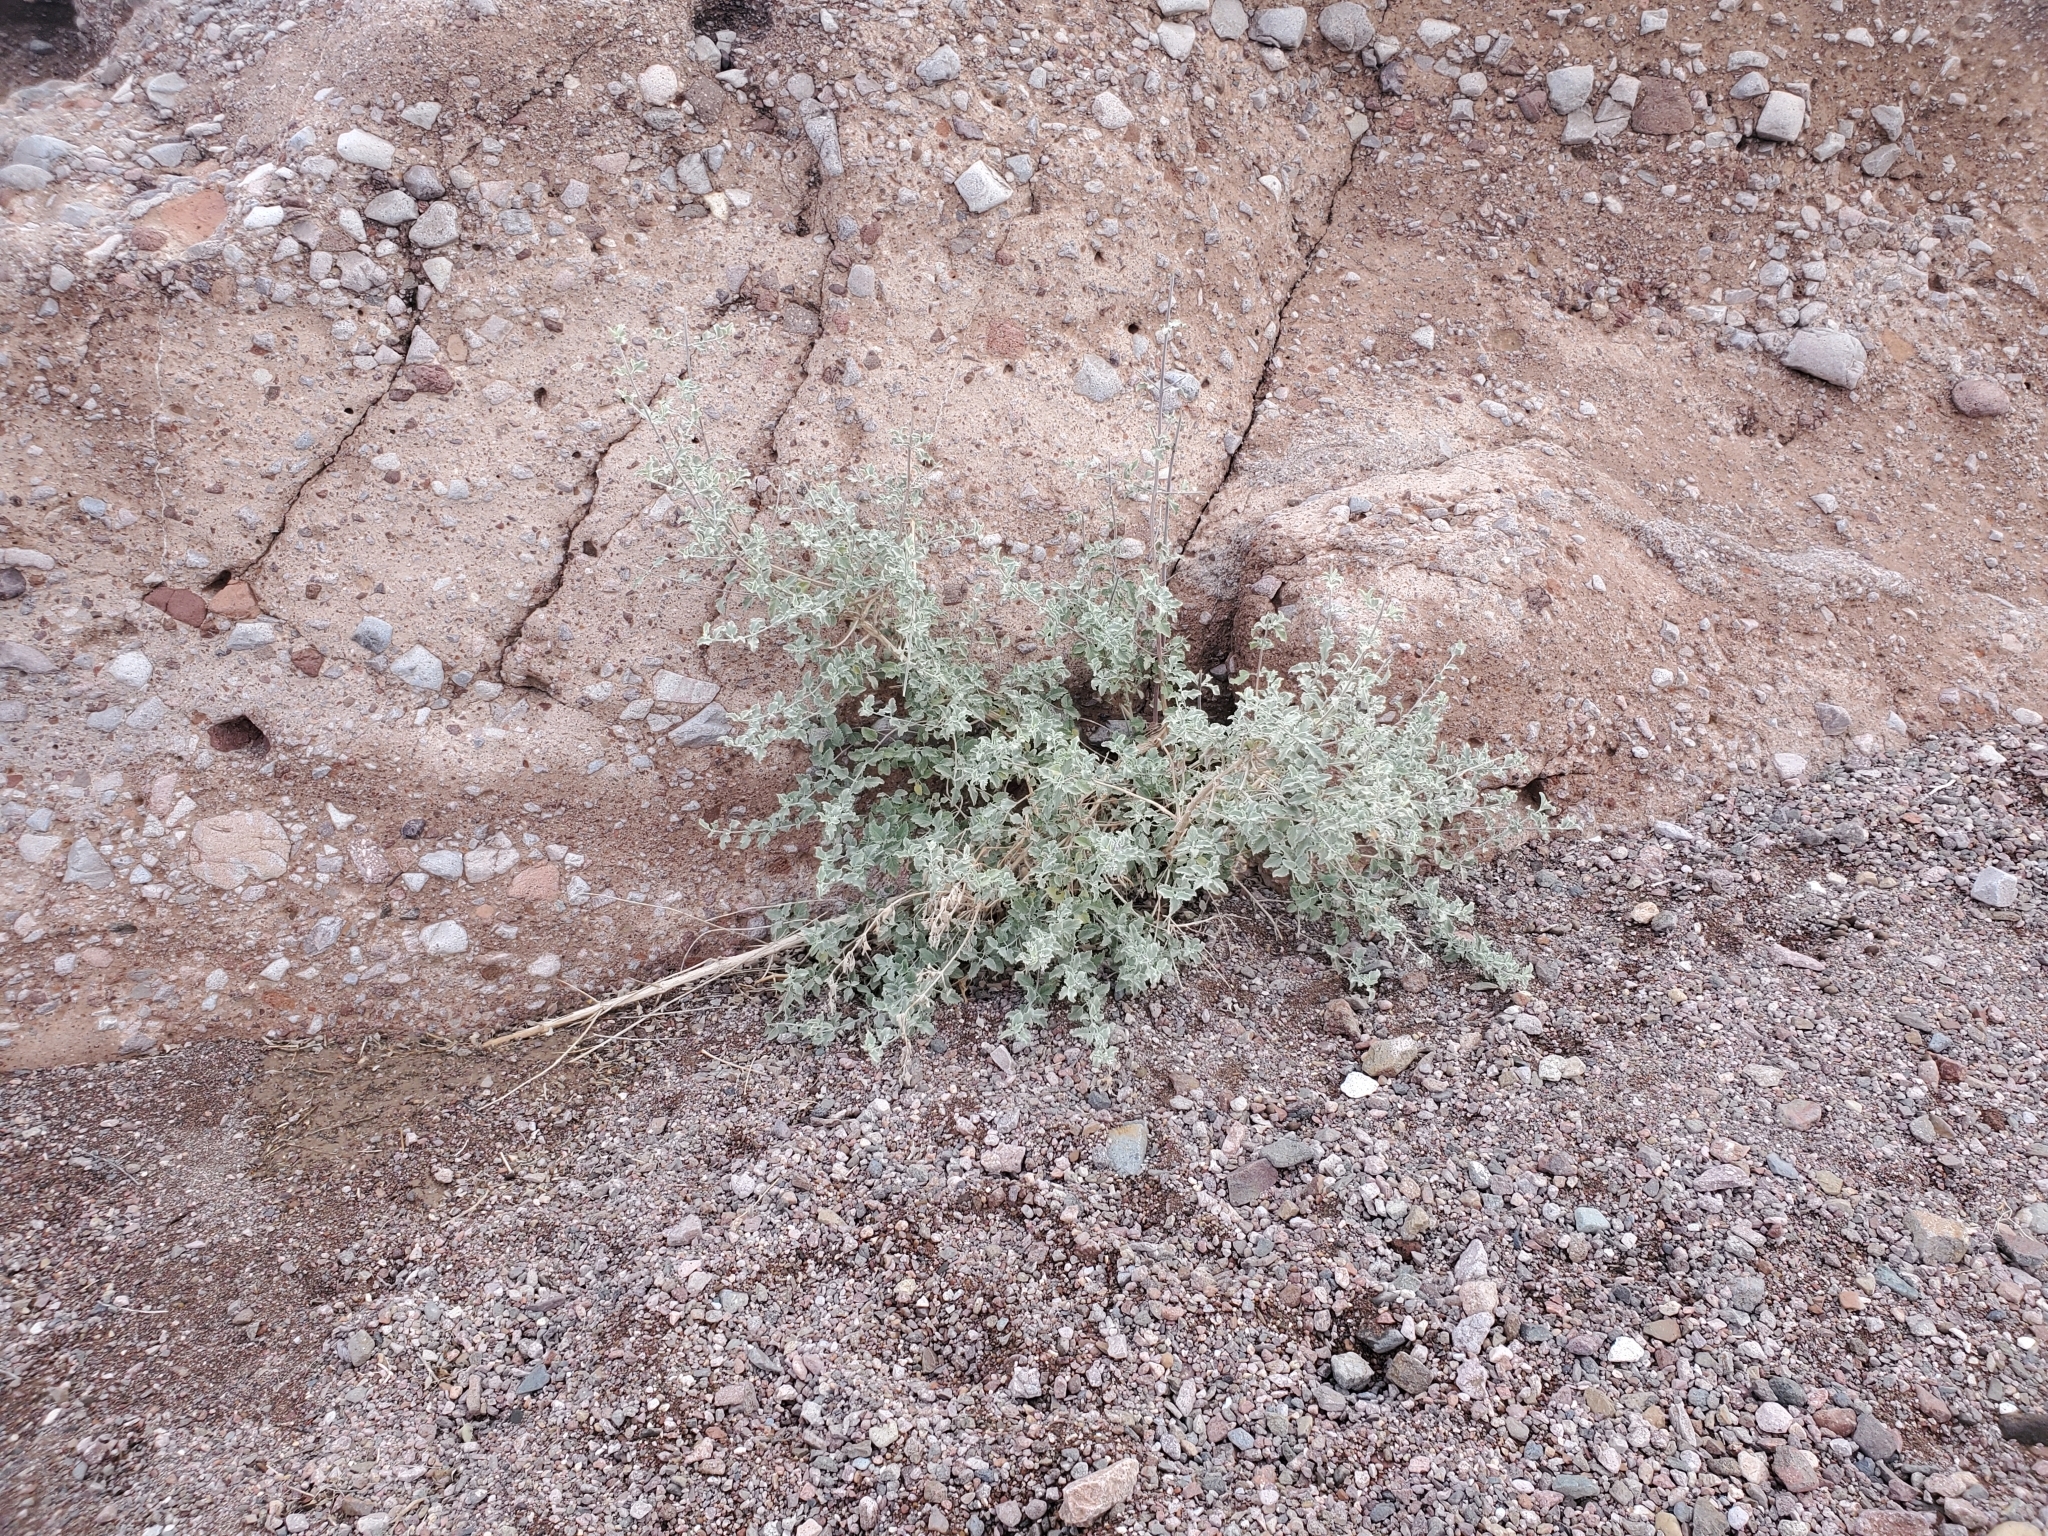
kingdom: Plantae
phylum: Tracheophyta
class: Magnoliopsida
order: Lamiales
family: Lamiaceae
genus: Condea
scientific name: Condea emoryi
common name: Chia
